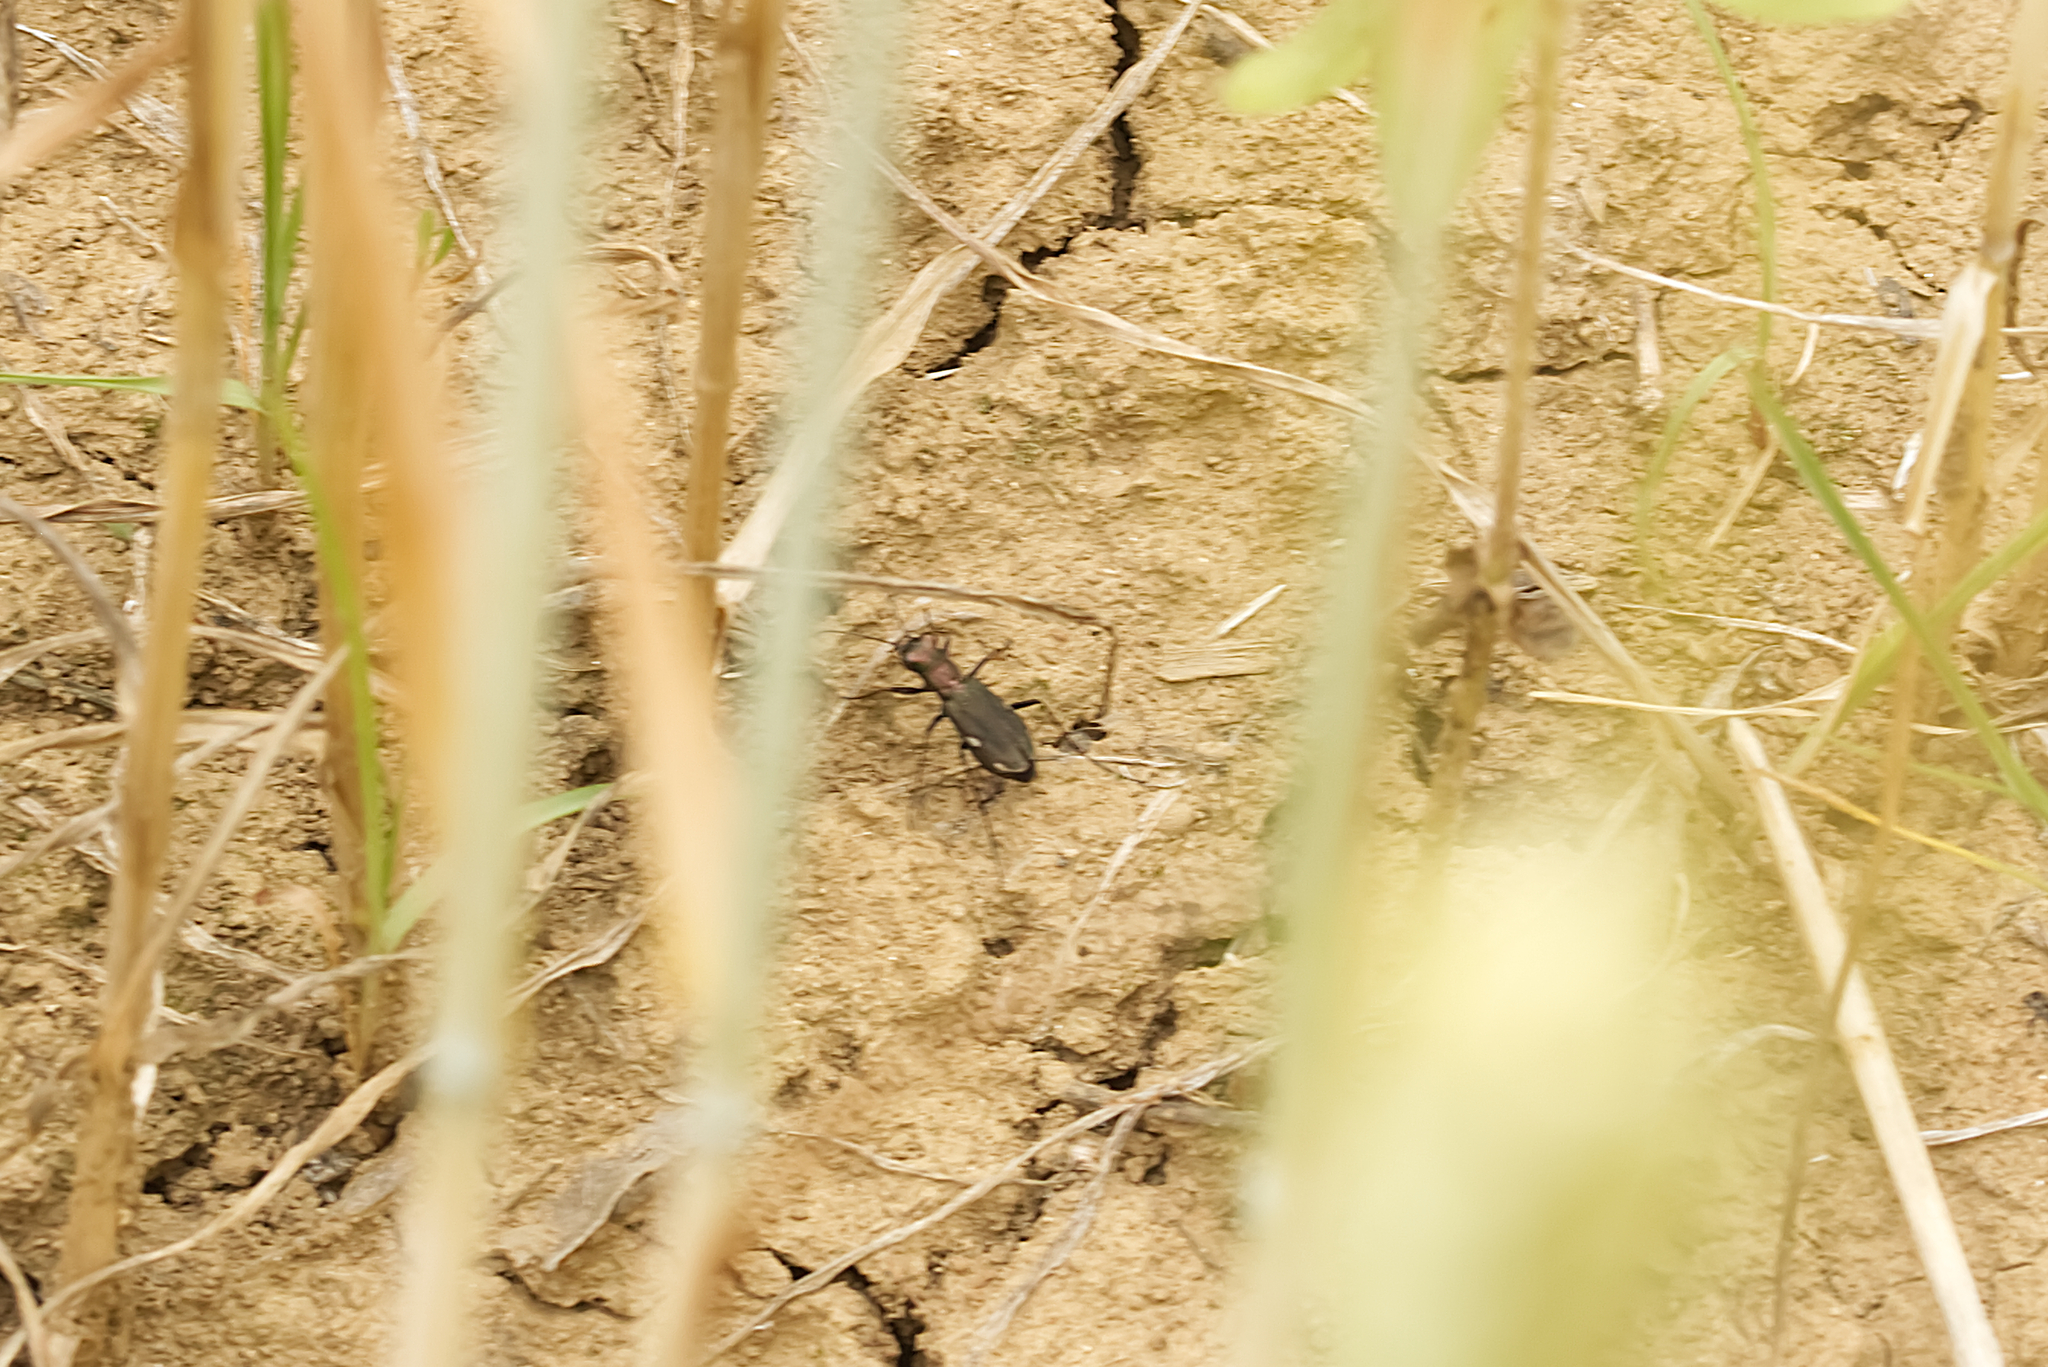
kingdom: Animalia
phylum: Arthropoda
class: Insecta
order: Coleoptera
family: Carabidae
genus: Cylindera
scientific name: Cylindera germanica
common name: Cliff tiger beetle
